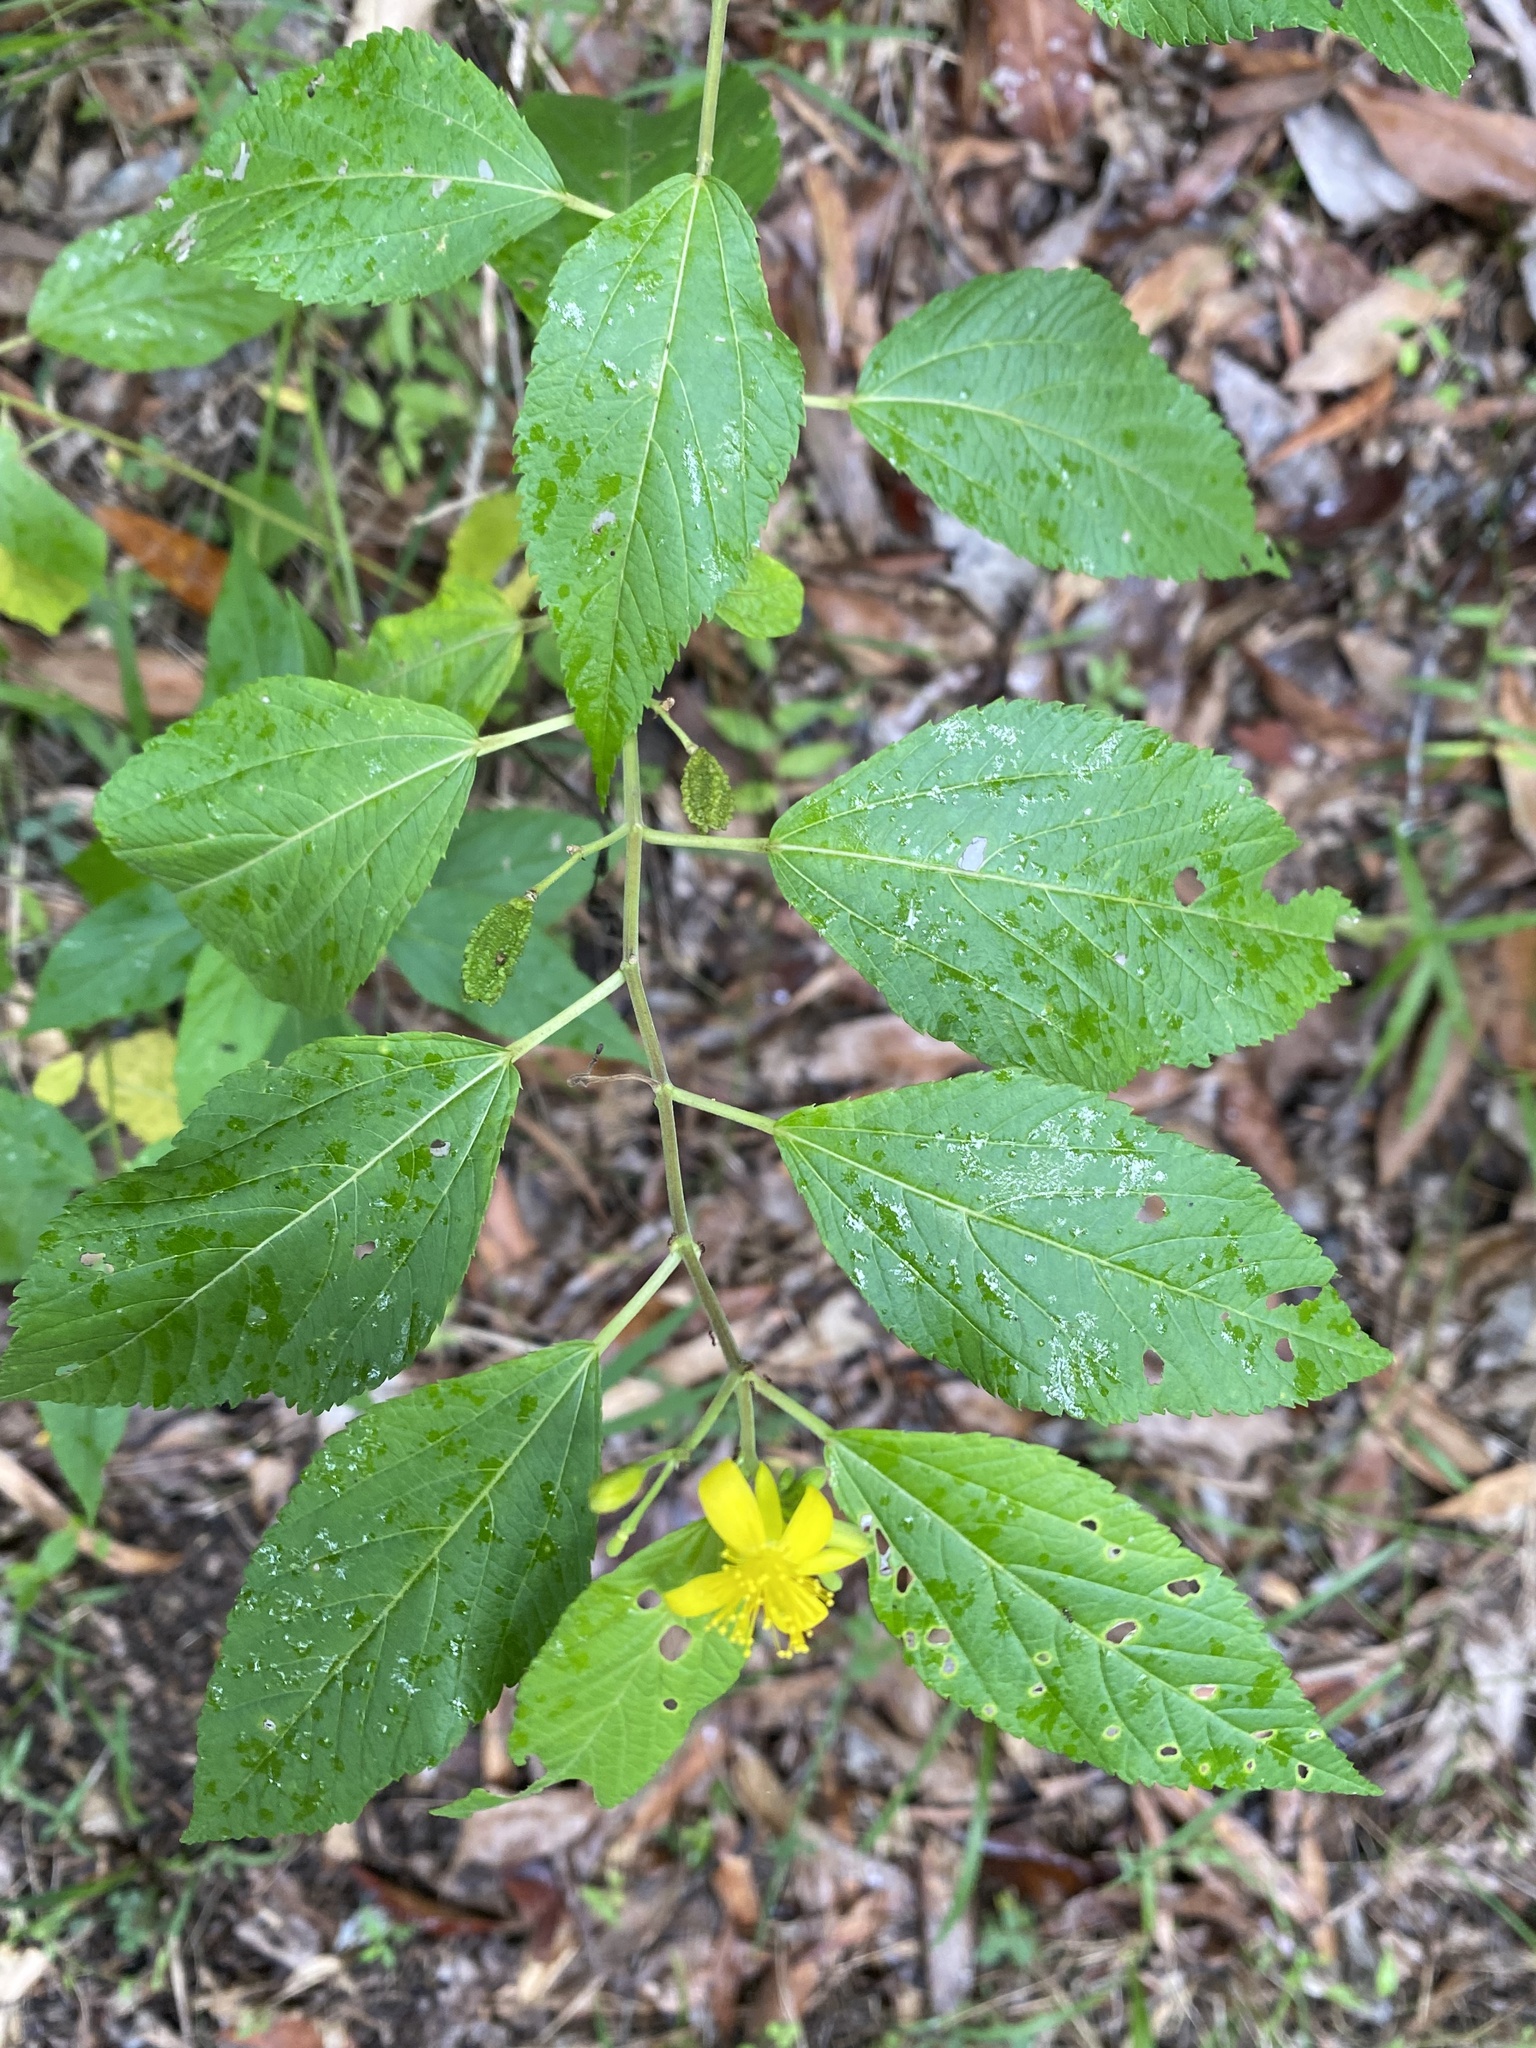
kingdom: Plantae
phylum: Tracheophyta
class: Magnoliopsida
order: Malvales
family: Malvaceae
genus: Corchorus
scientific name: Corchorus reynoldsiae
